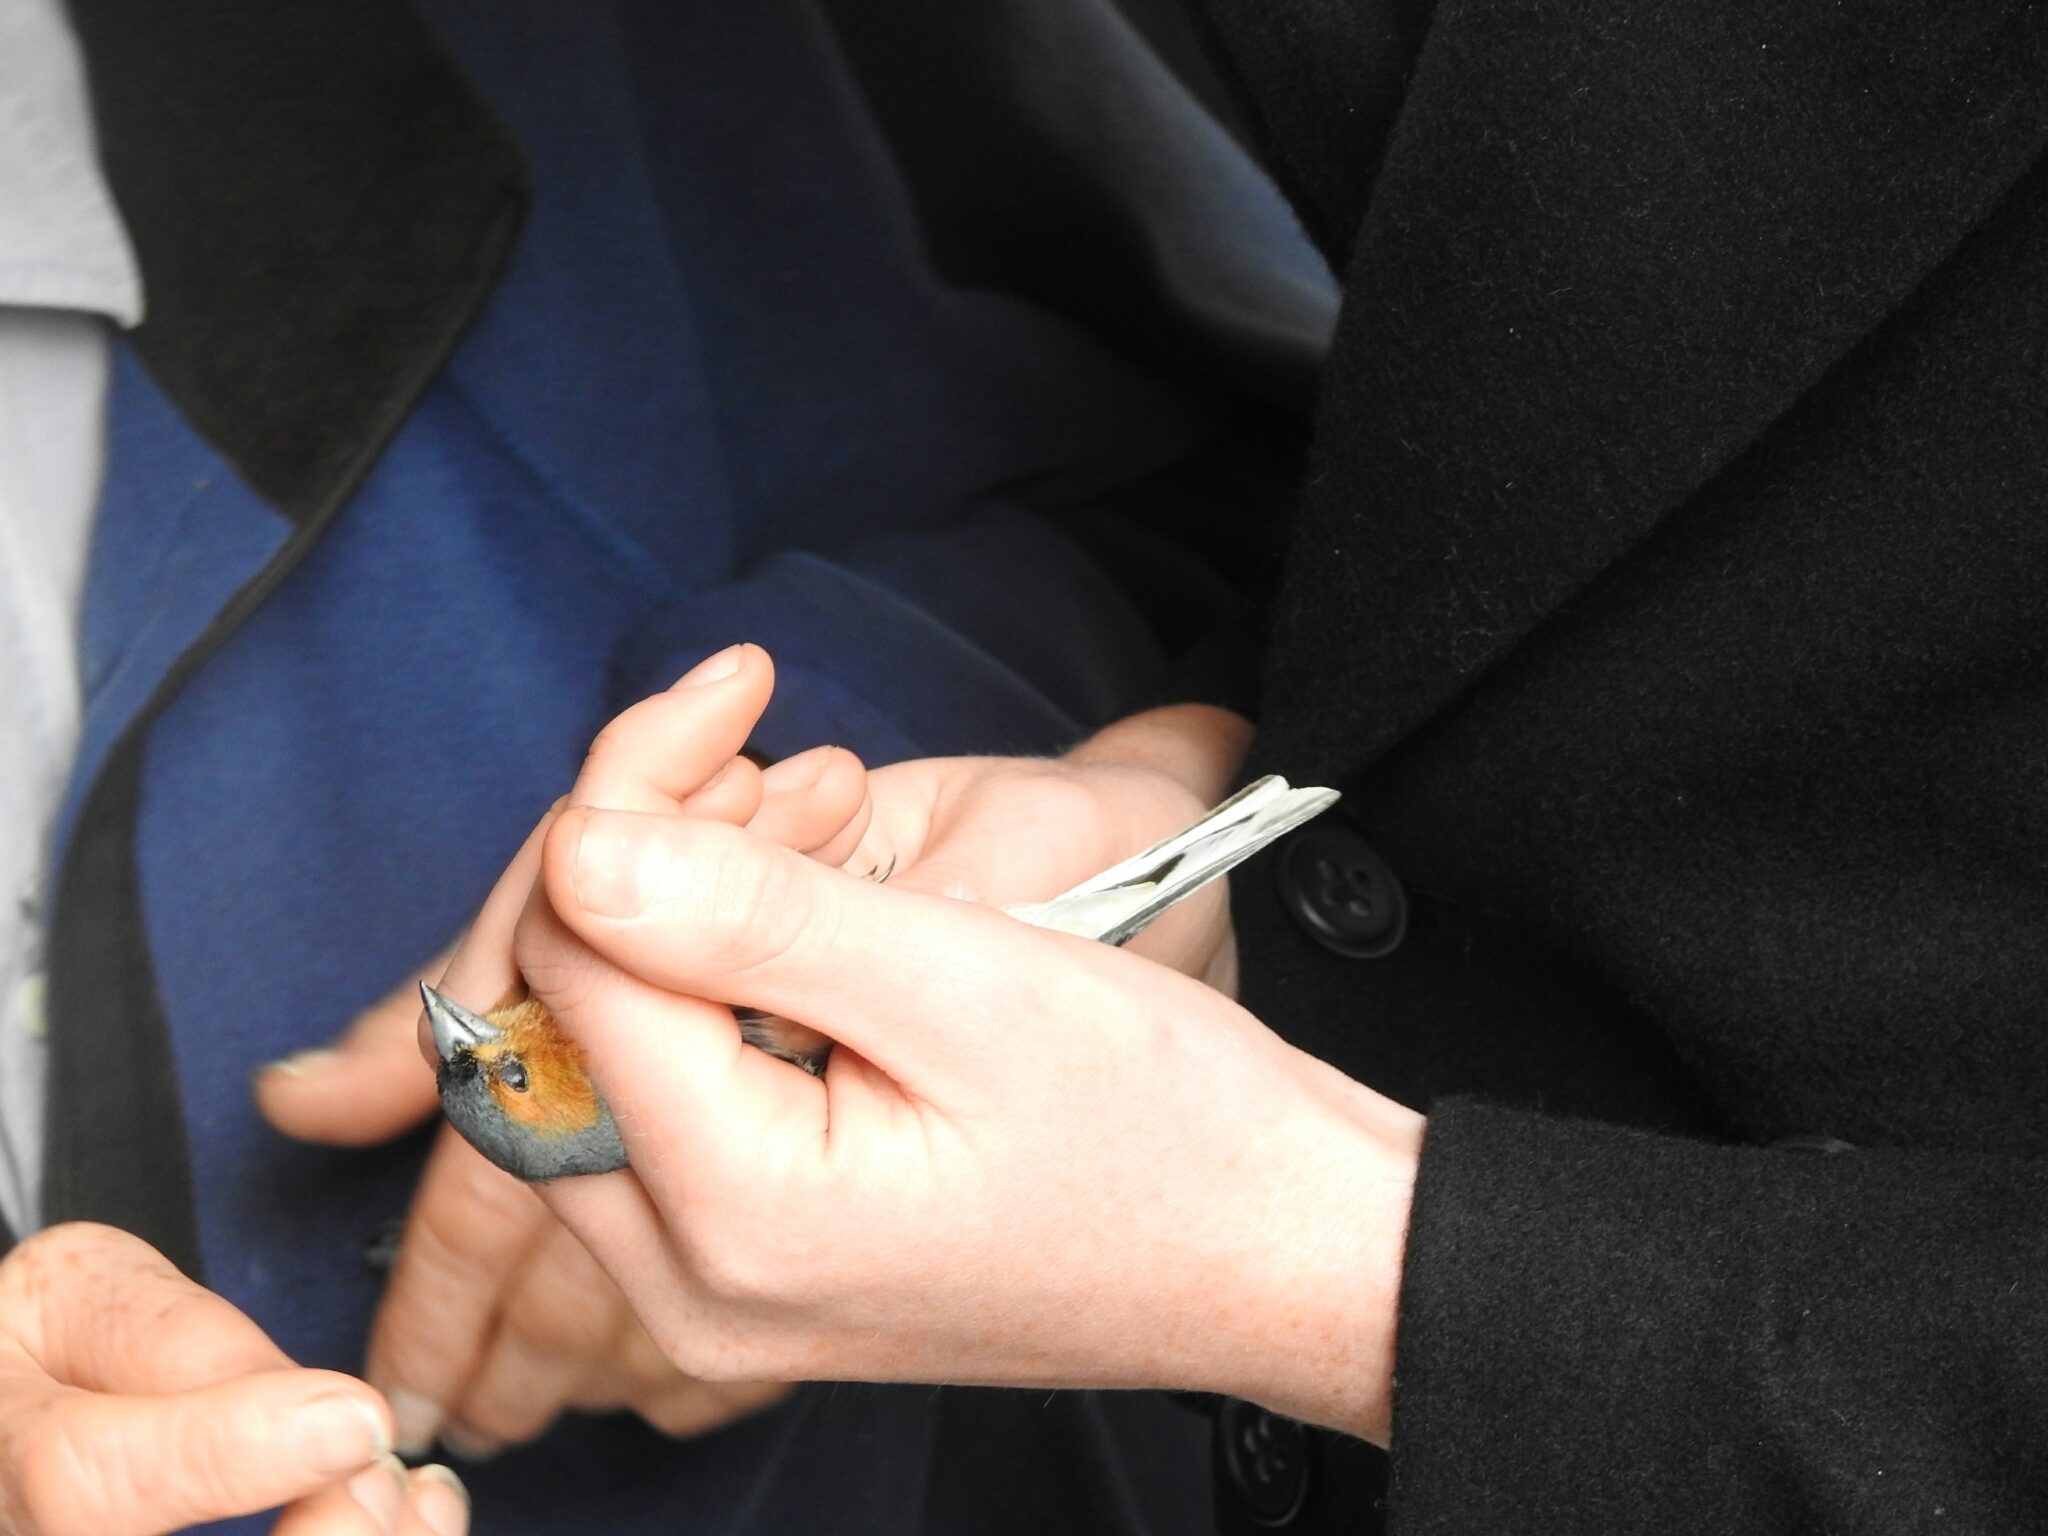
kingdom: Animalia
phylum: Chordata
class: Aves
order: Passeriformes
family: Fringillidae
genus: Fringilla
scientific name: Fringilla coelebs
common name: Common chaffinch
